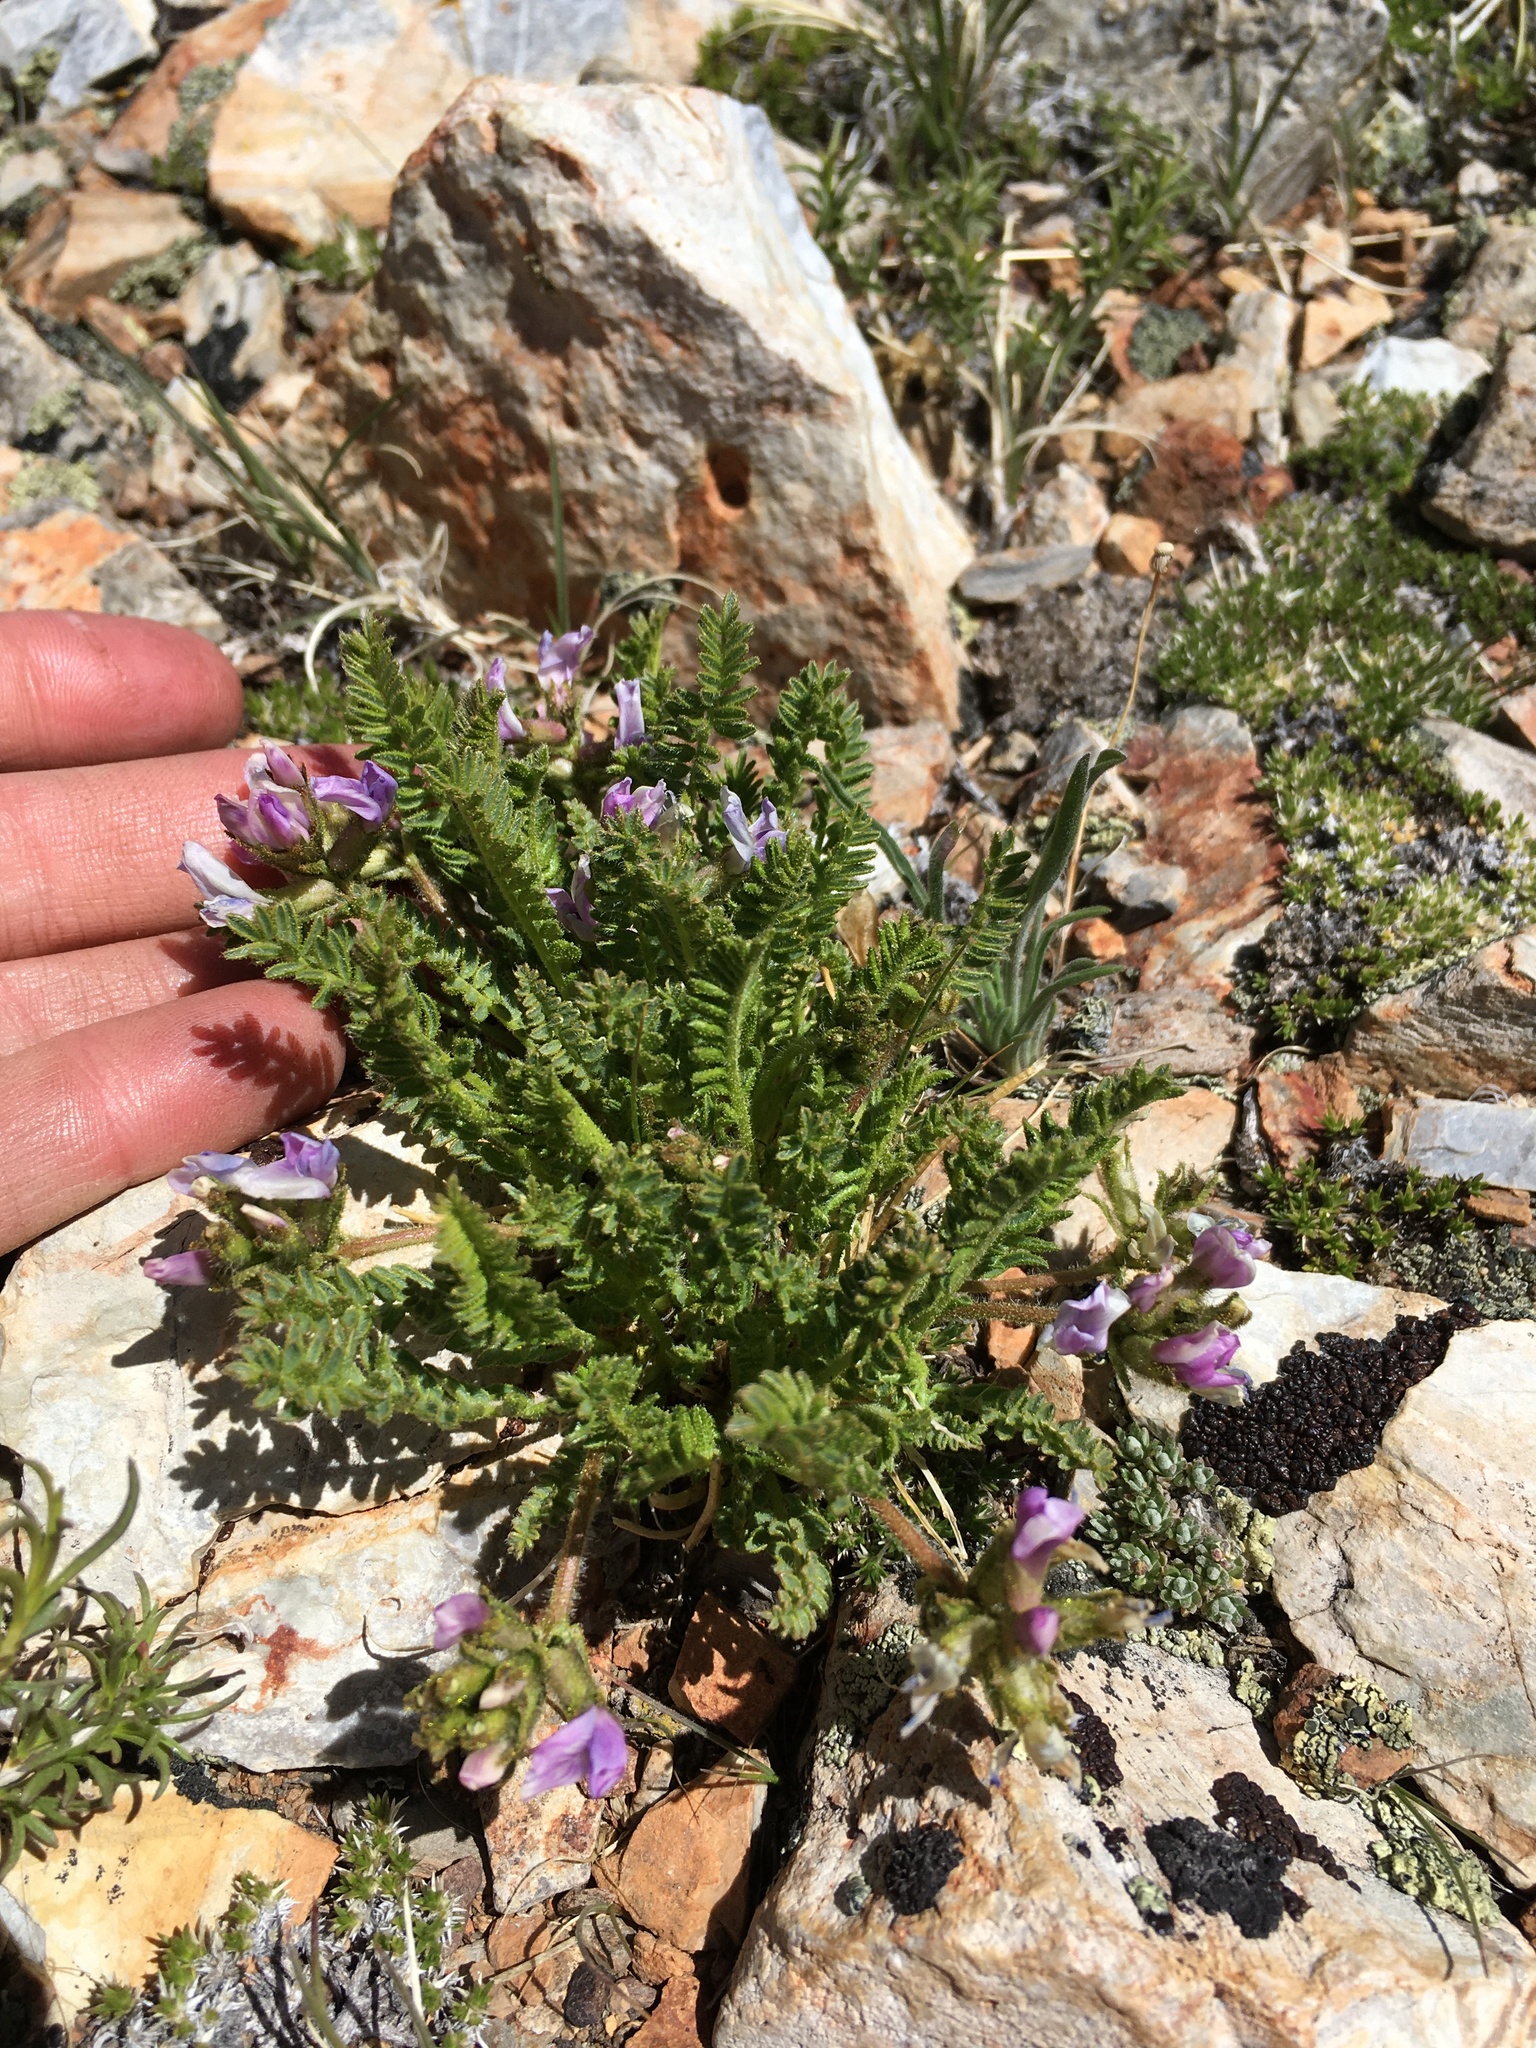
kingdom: Plantae
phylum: Tracheophyta
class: Magnoliopsida
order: Fabales
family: Fabaceae
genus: Oxytropis
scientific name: Oxytropis borealis
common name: Boreal locoweed
